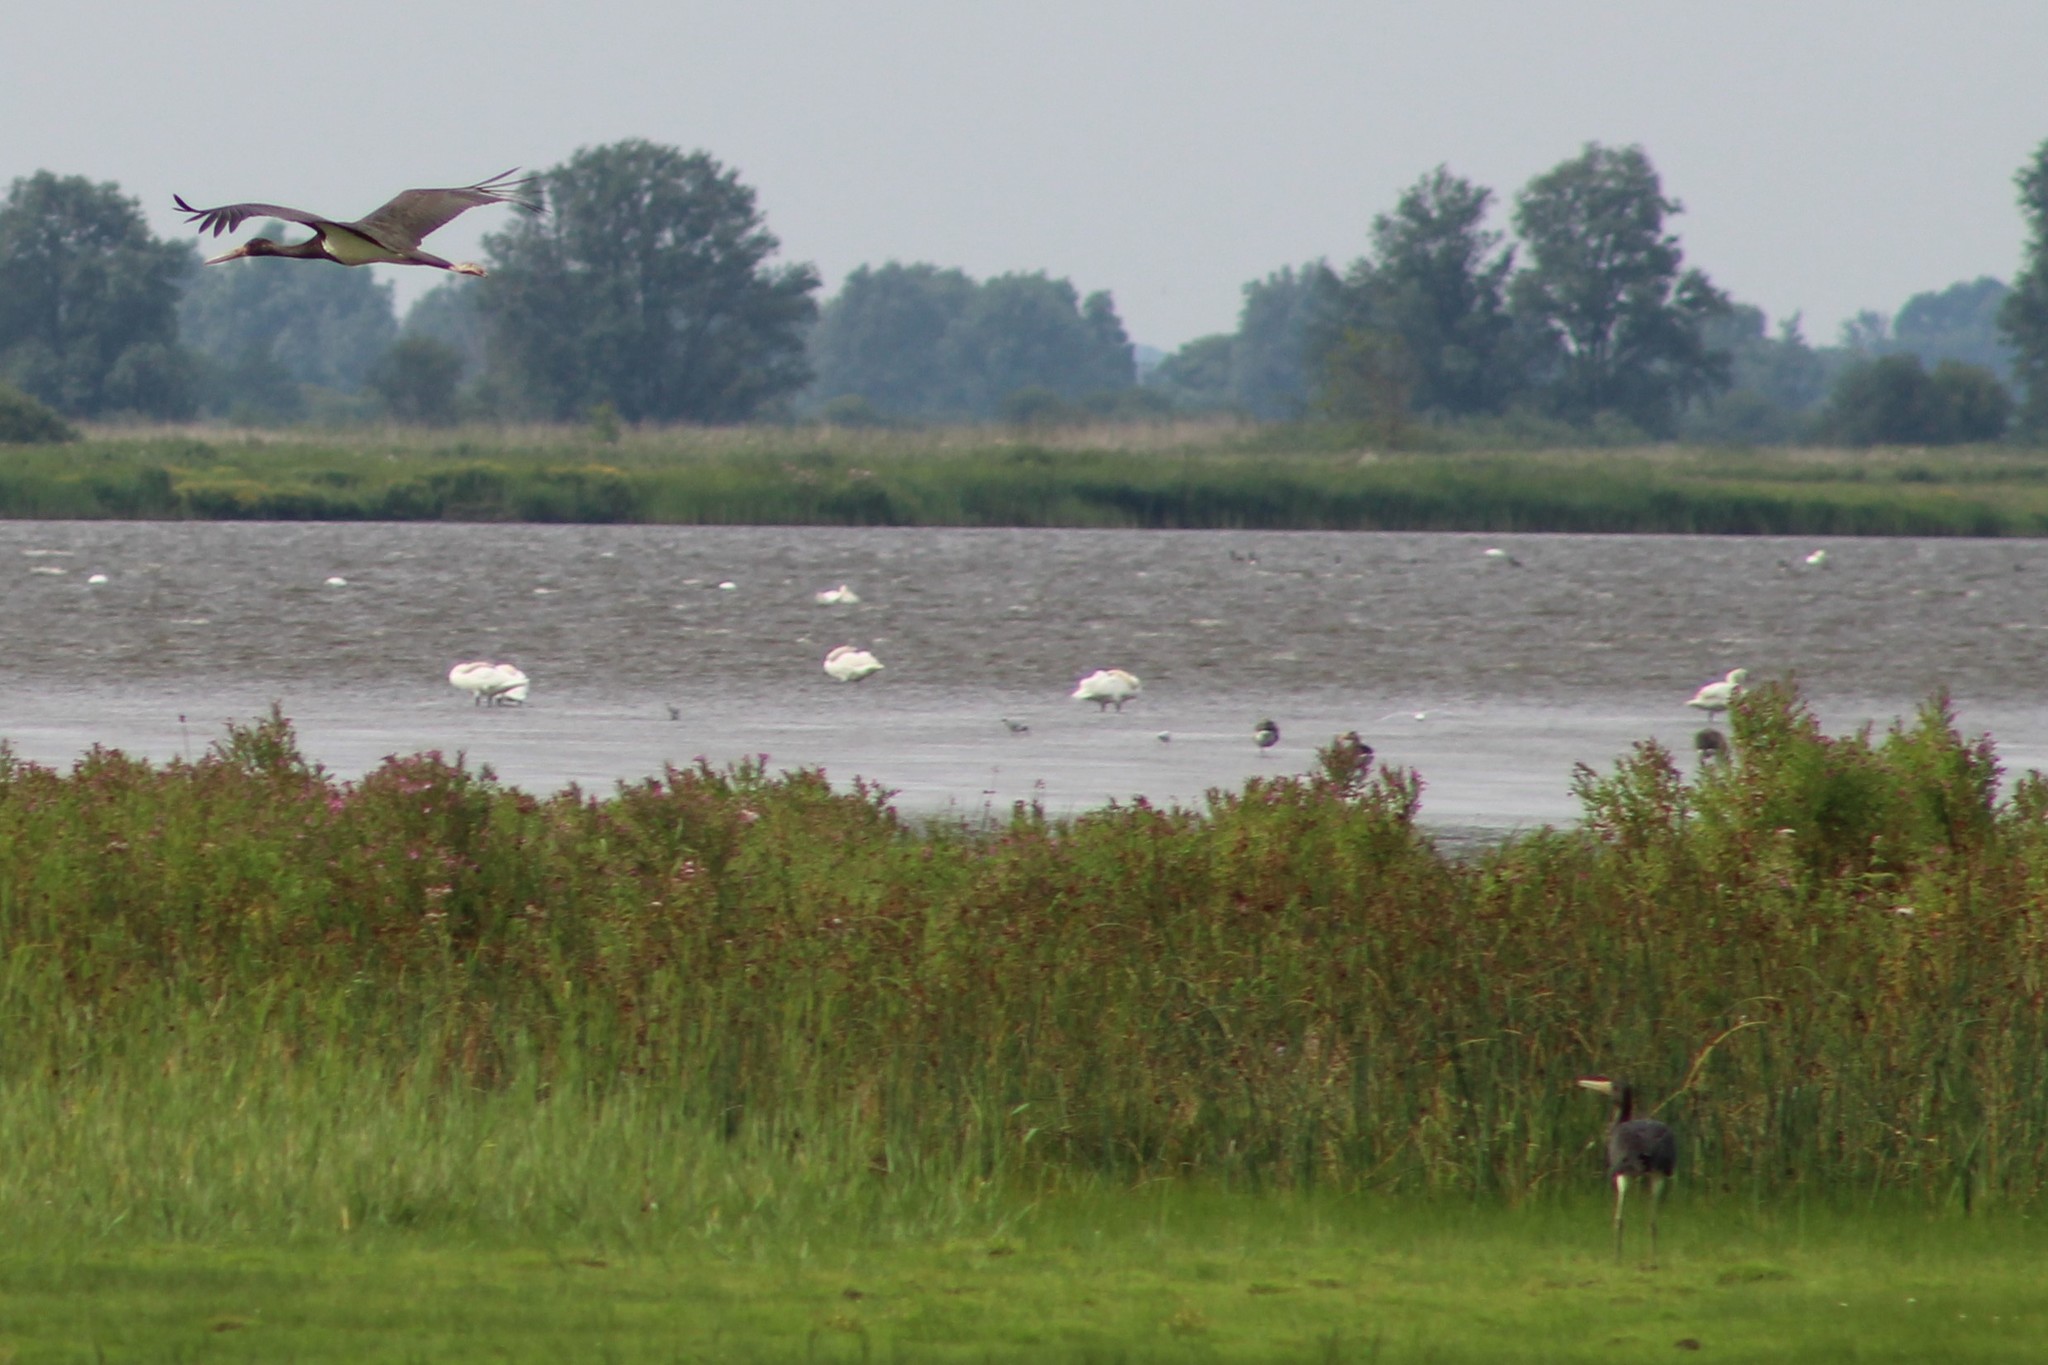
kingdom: Animalia
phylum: Chordata
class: Aves
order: Ciconiiformes
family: Ciconiidae
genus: Ciconia
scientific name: Ciconia nigra
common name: Black stork
